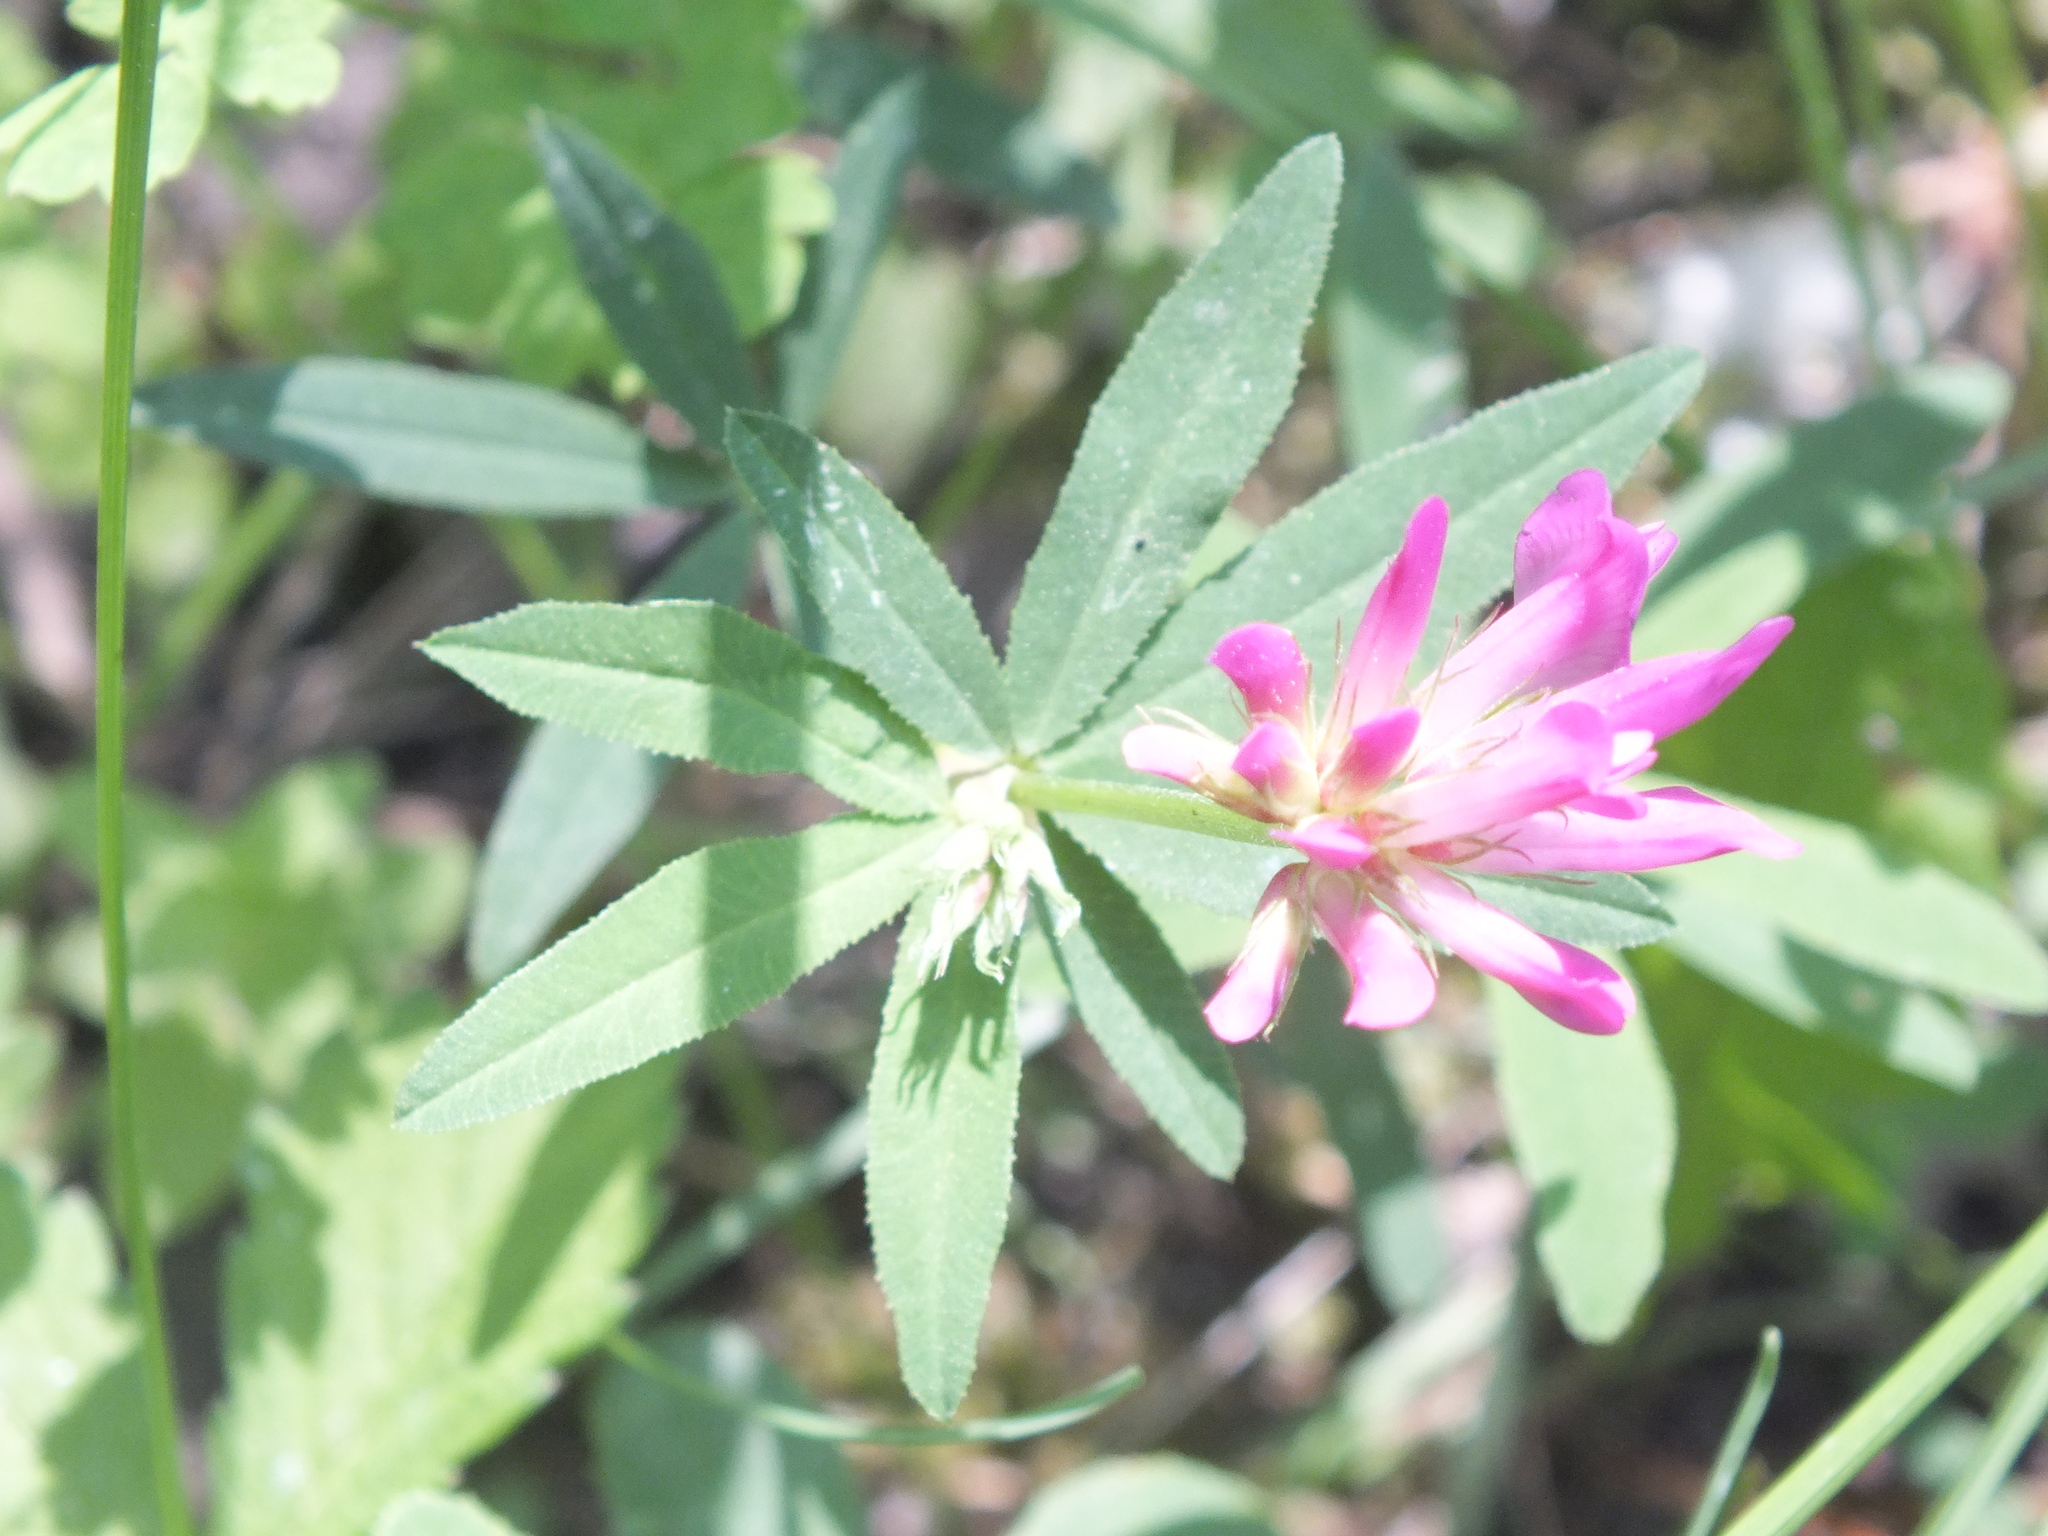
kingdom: Plantae
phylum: Tracheophyta
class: Magnoliopsida
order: Fabales
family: Fabaceae
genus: Trifolium
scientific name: Trifolium lupinaster
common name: Lupine clover
